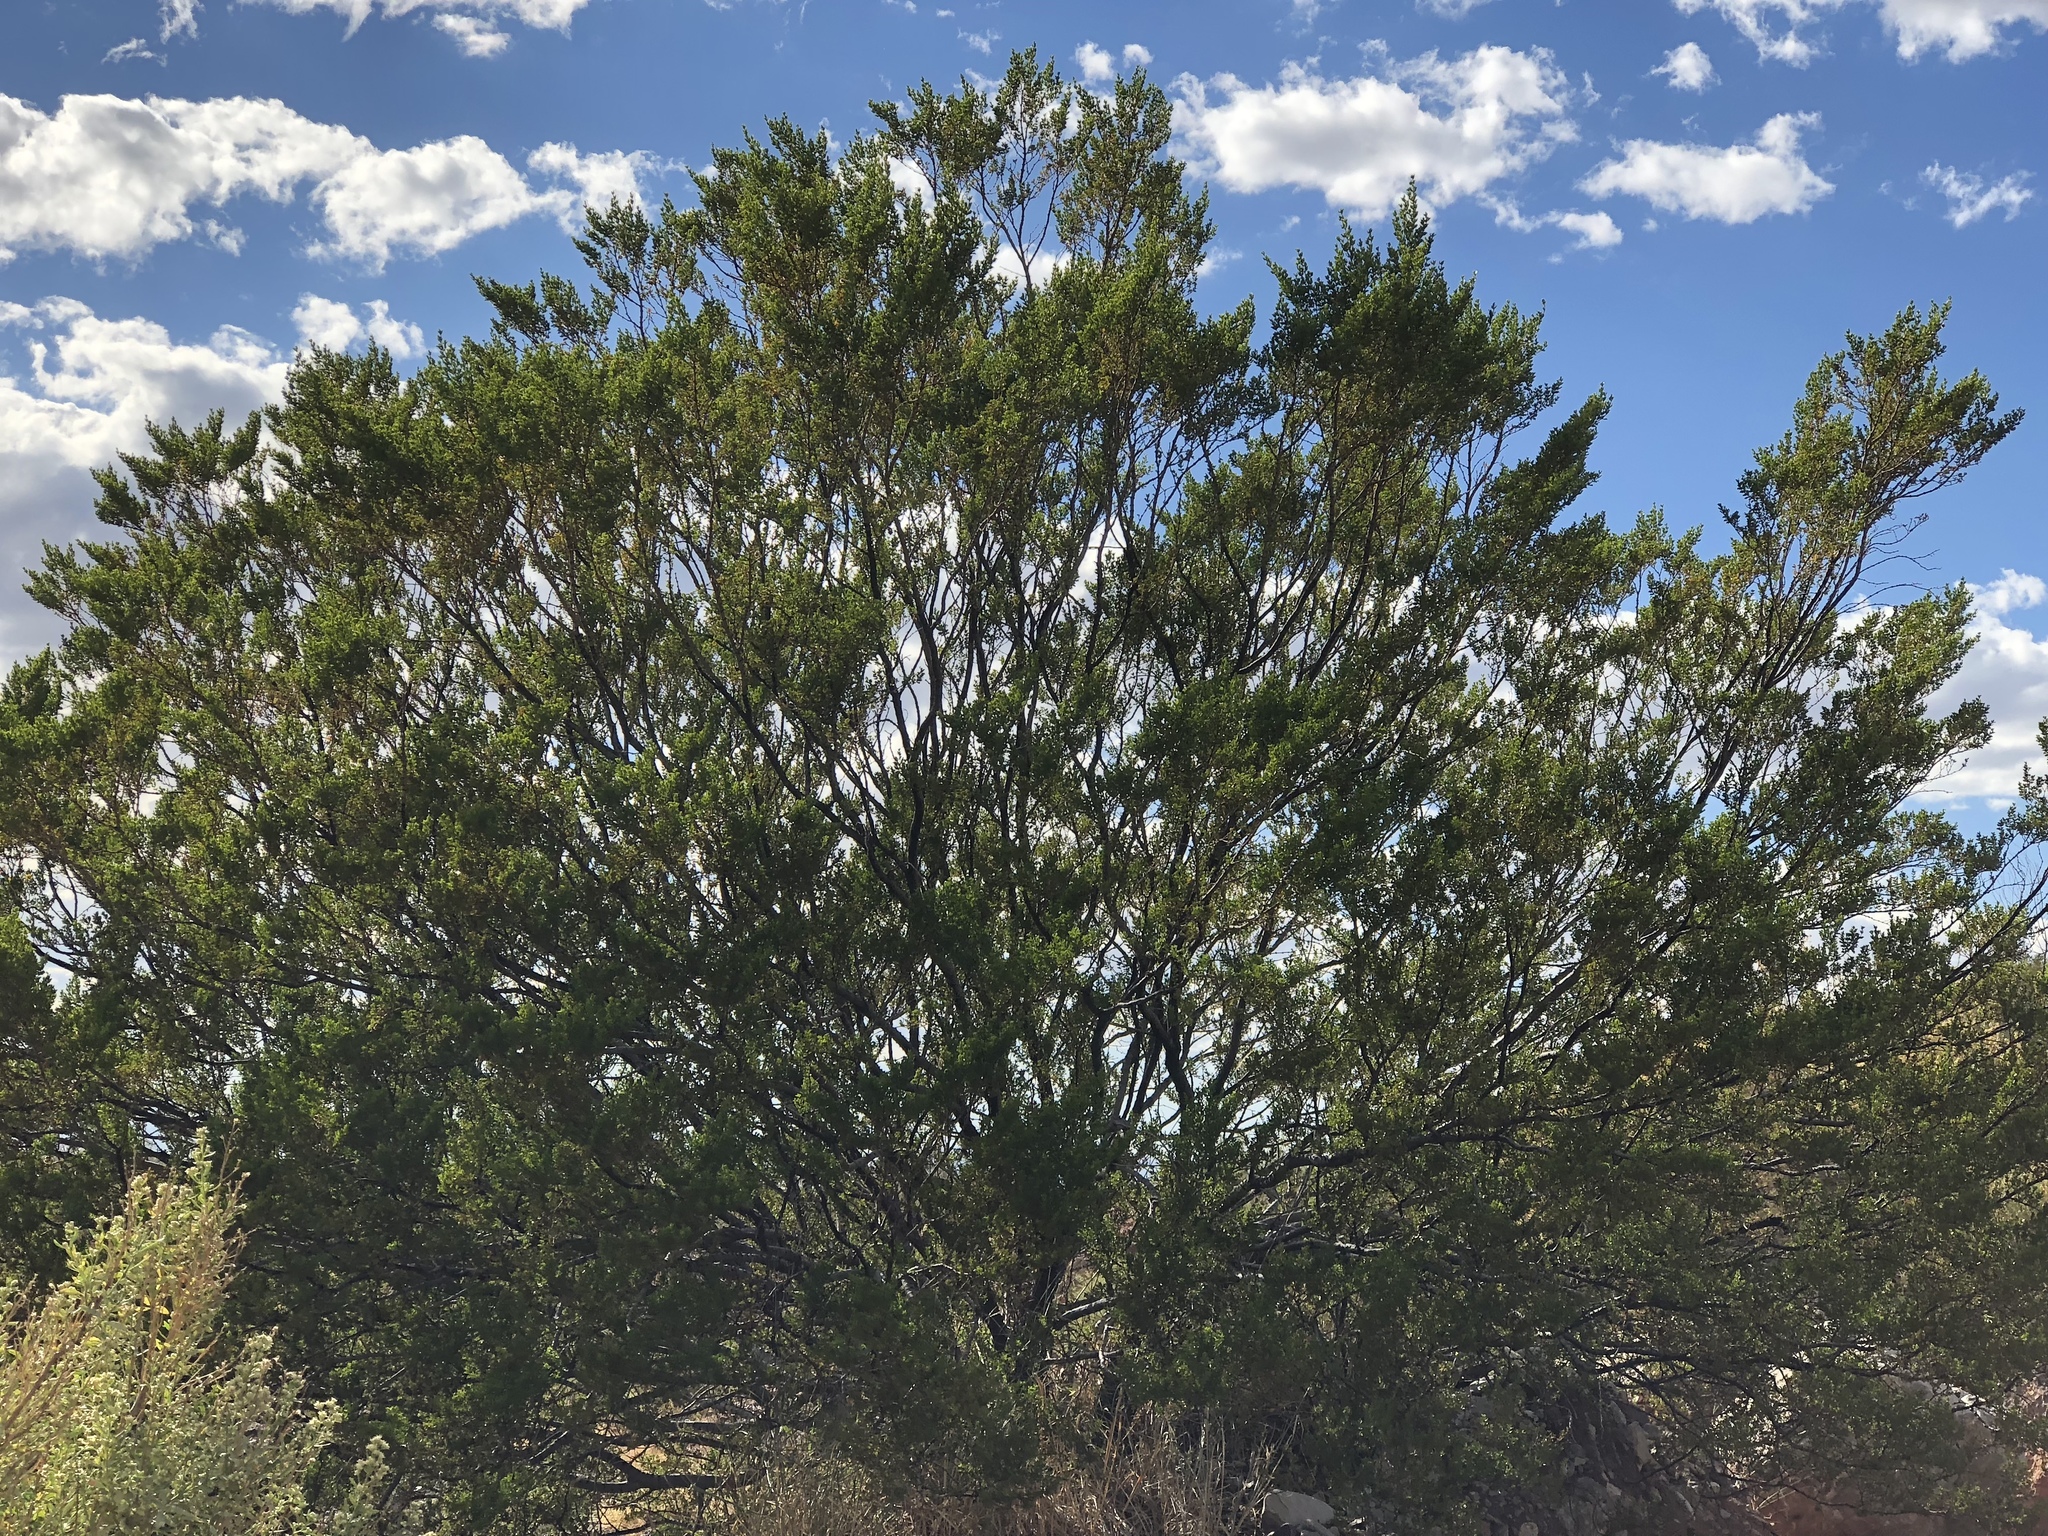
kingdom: Plantae
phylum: Tracheophyta
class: Magnoliopsida
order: Zygophyllales
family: Zygophyllaceae
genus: Larrea
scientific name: Larrea tridentata
